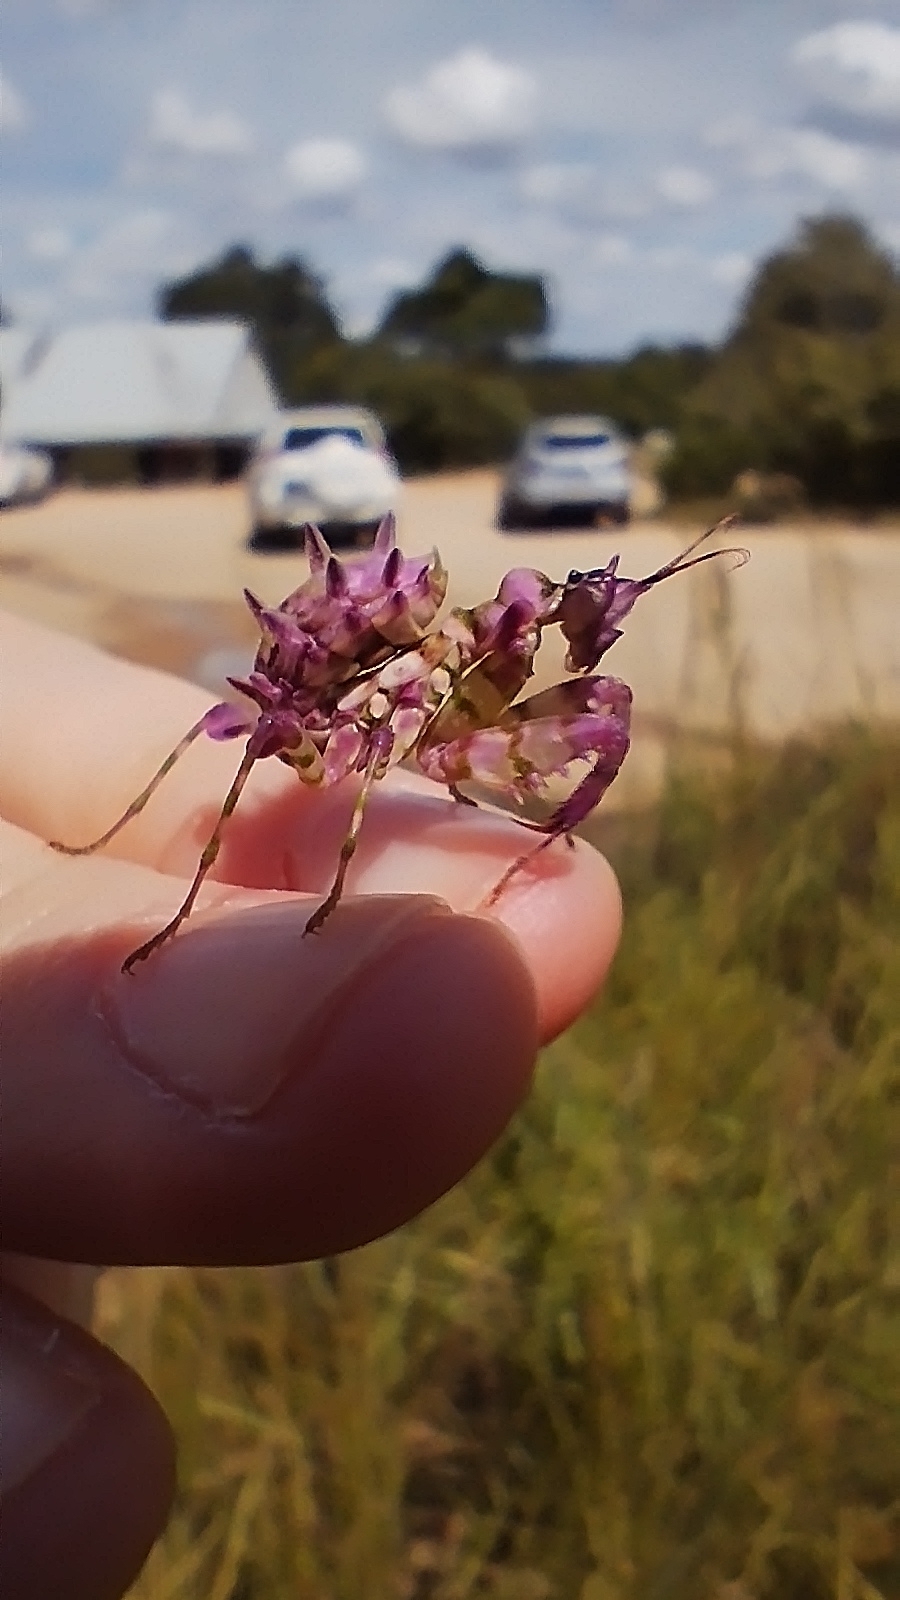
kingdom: Animalia
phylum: Arthropoda
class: Insecta
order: Mantodea
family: Hymenopodidae
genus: Pseudocreobotra
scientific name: Pseudocreobotra wahlbergi
